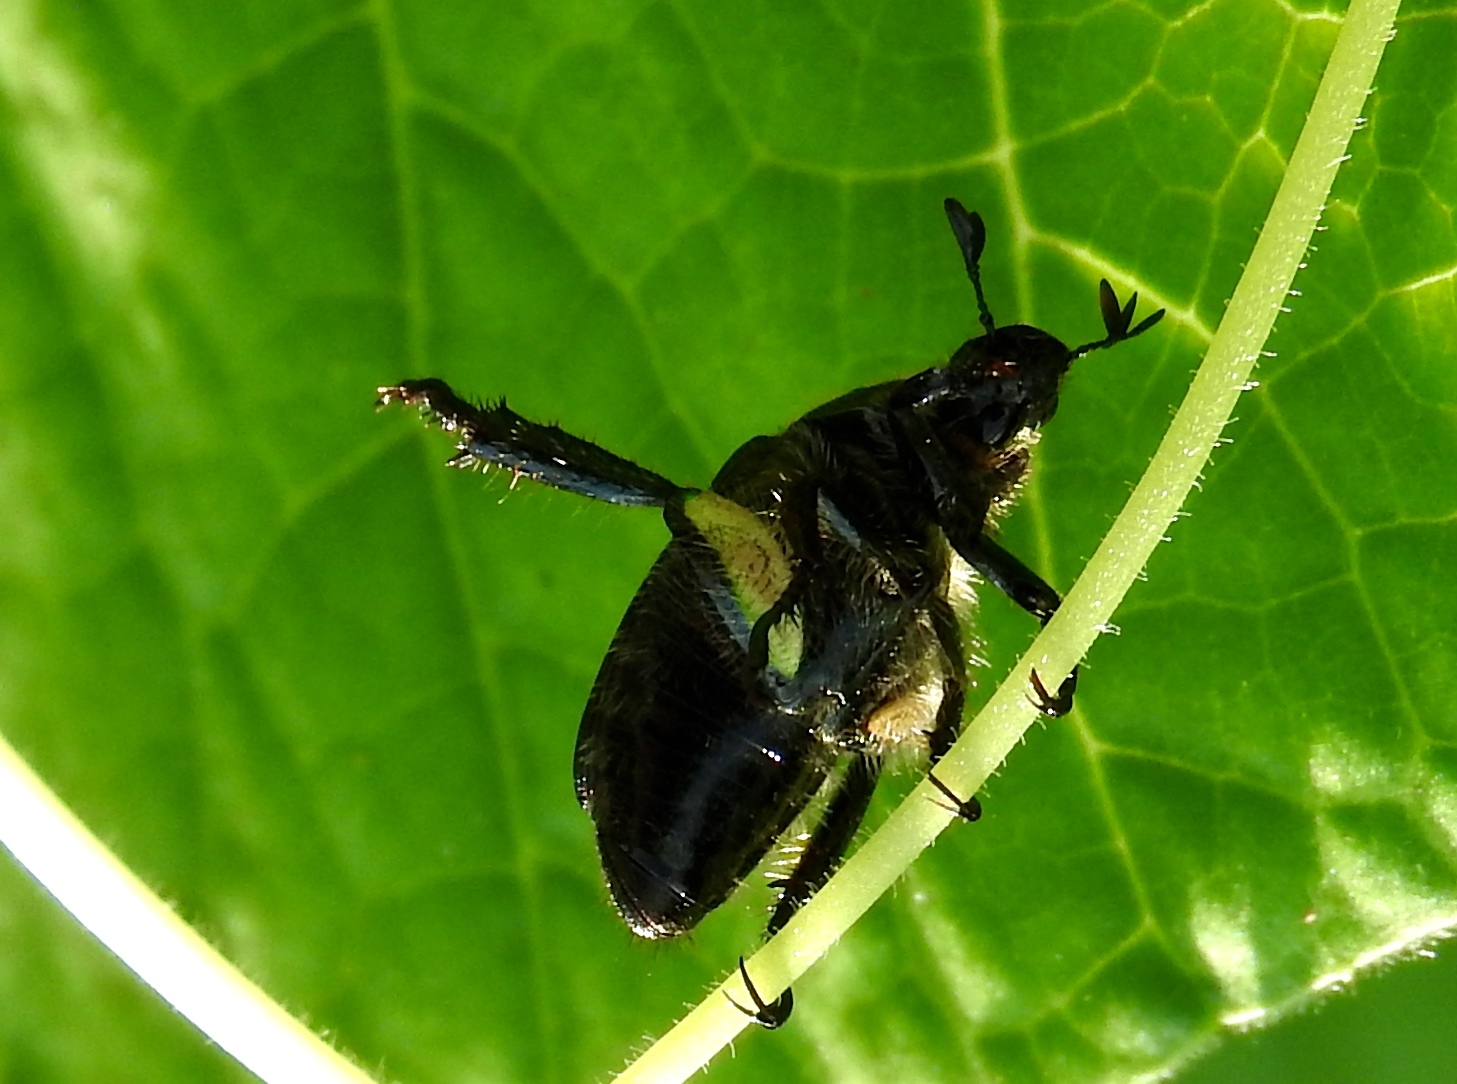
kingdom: Animalia
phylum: Arthropoda
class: Insecta
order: Coleoptera
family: Scarabaeidae
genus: Strigoderma
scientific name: Strigoderma sulcipennis
